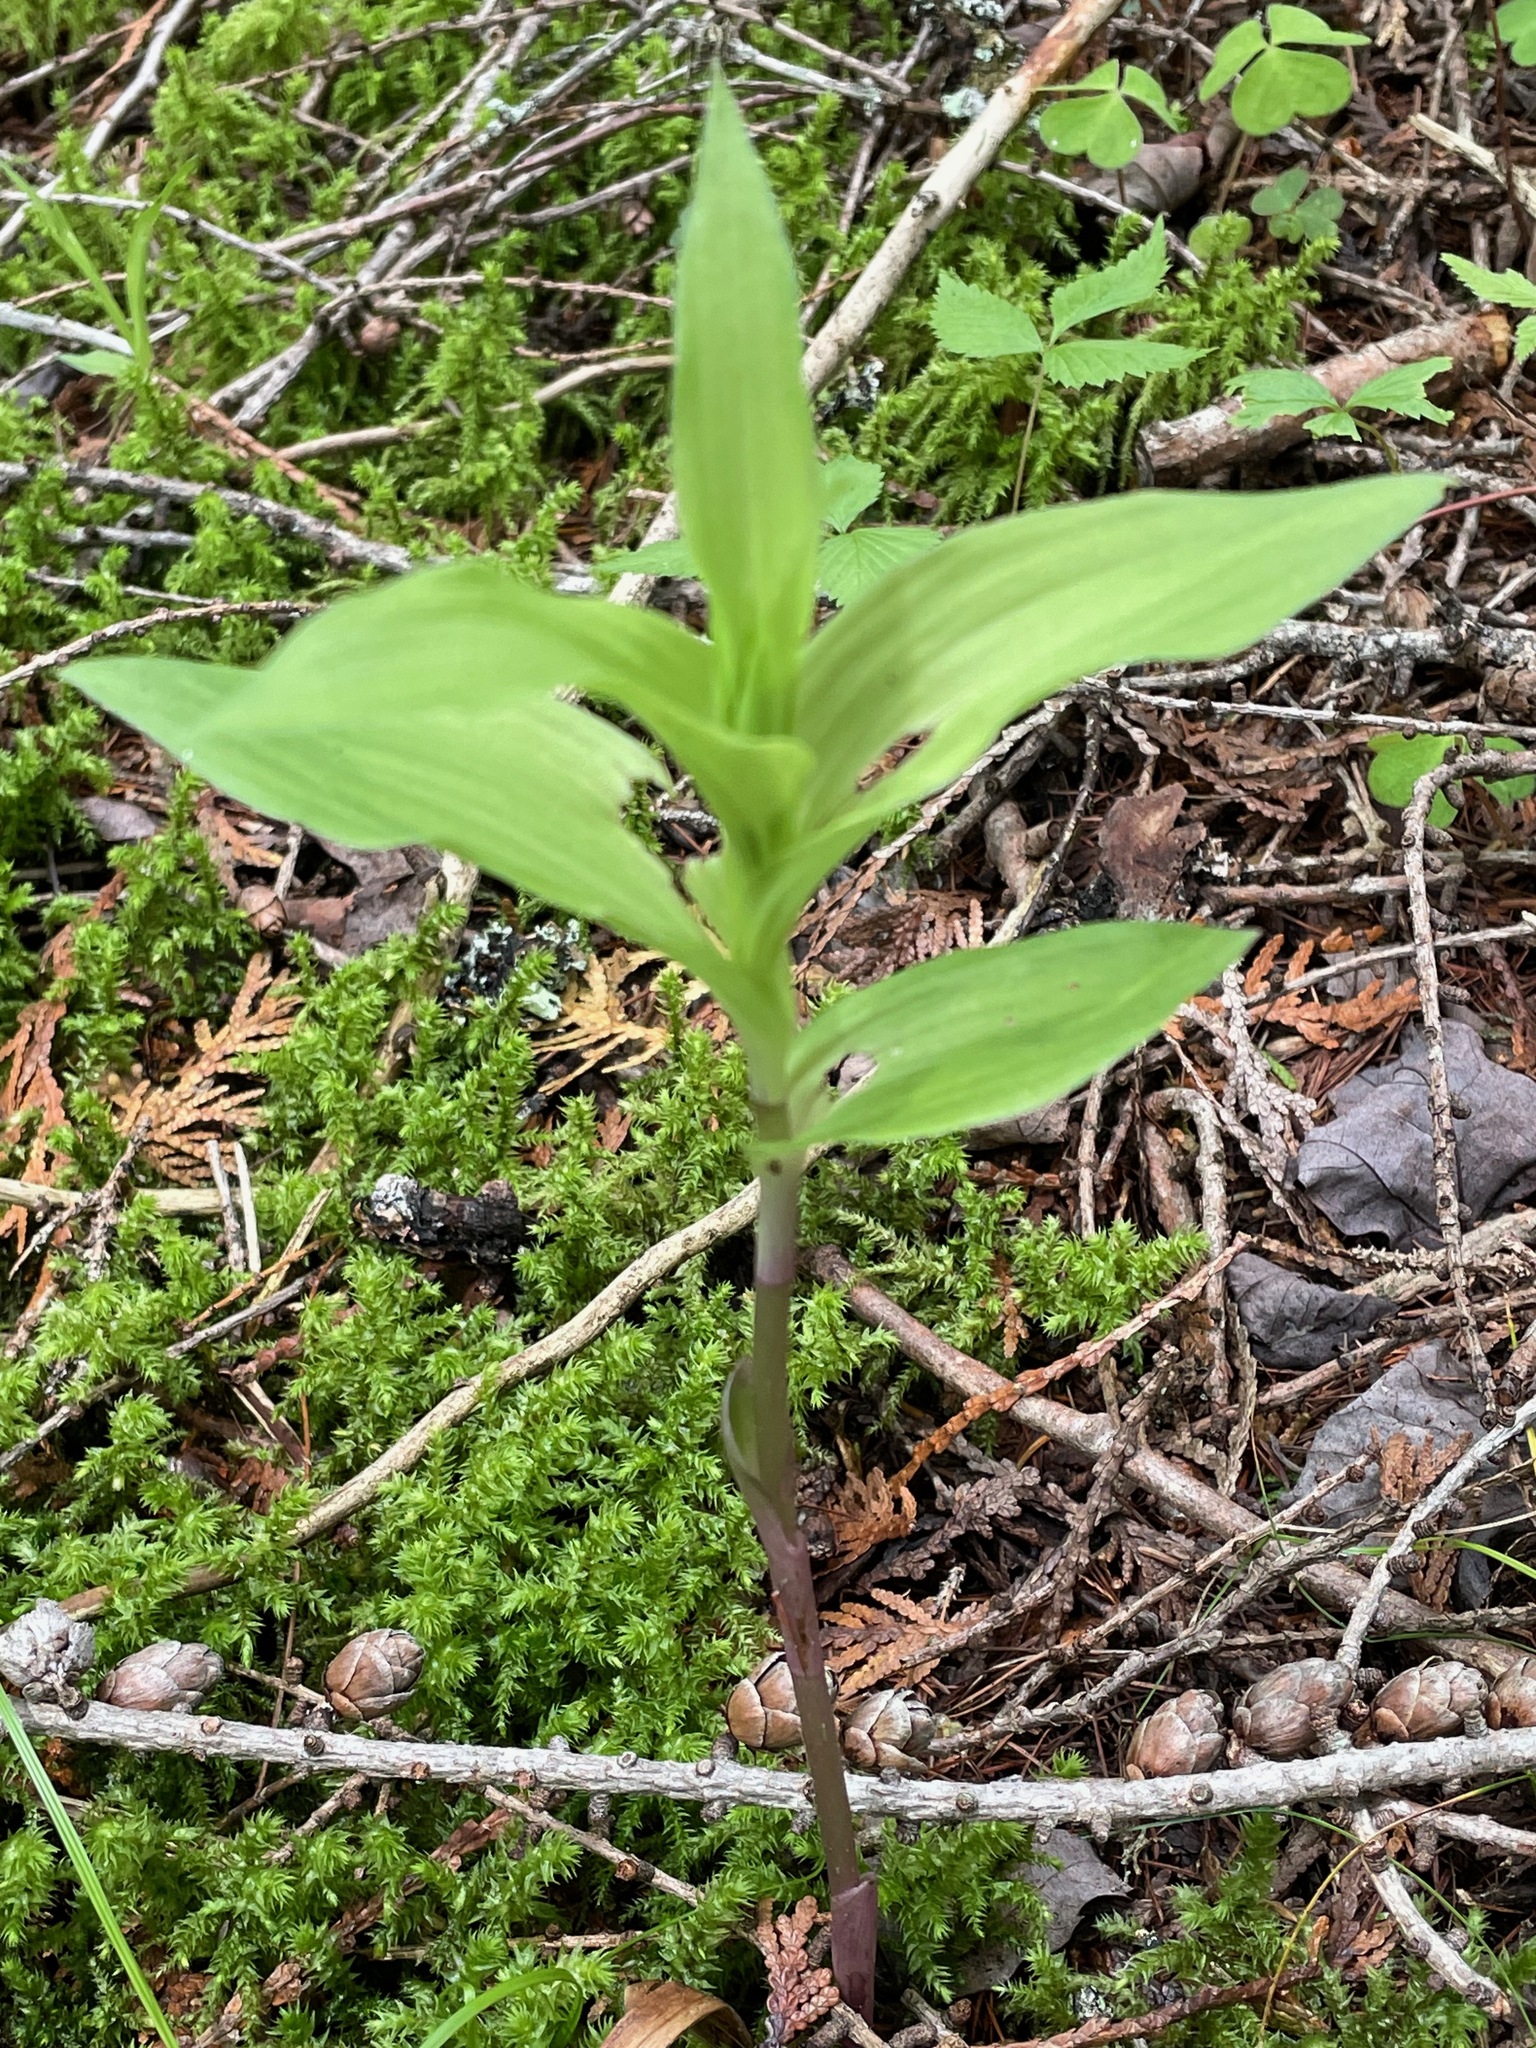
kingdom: Plantae
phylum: Tracheophyta
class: Liliopsida
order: Asparagales
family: Orchidaceae
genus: Epipactis
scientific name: Epipactis helleborine
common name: Broad-leaved helleborine
